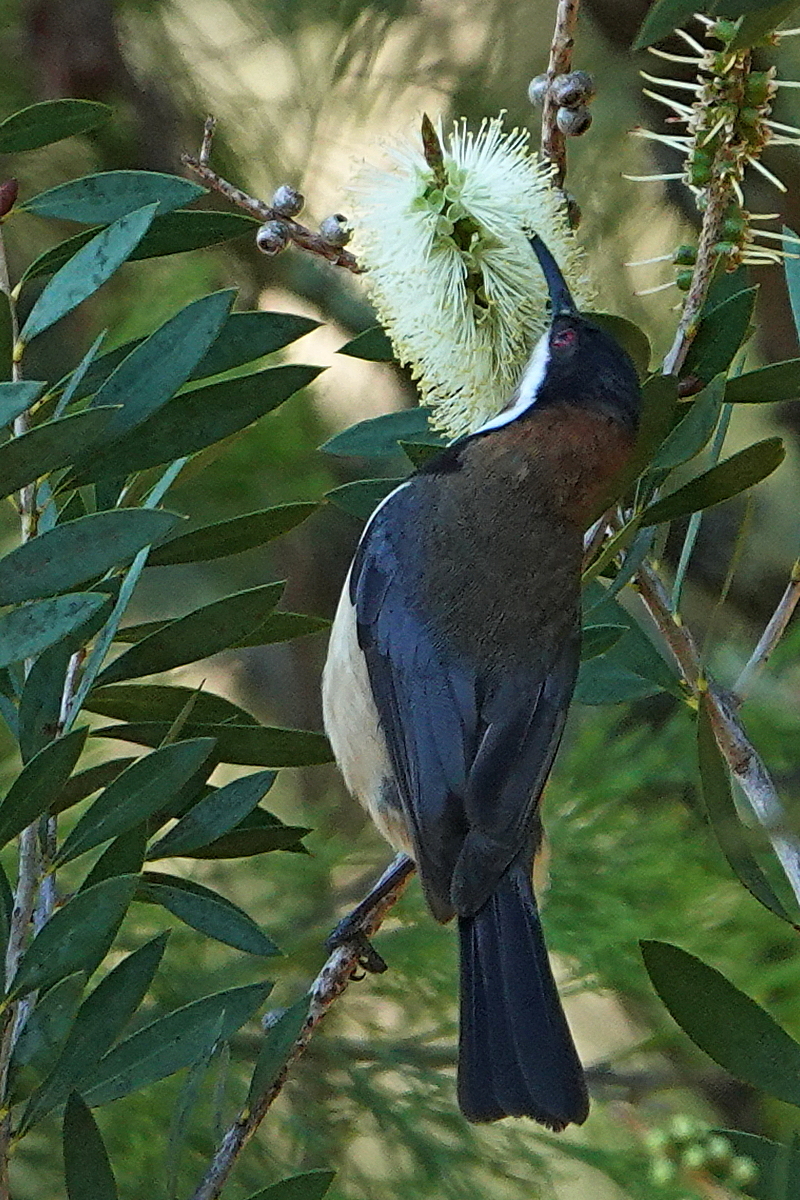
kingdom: Animalia
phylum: Chordata
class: Aves
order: Passeriformes
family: Meliphagidae
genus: Acanthorhynchus
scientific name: Acanthorhynchus tenuirostris
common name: Eastern spinebill
